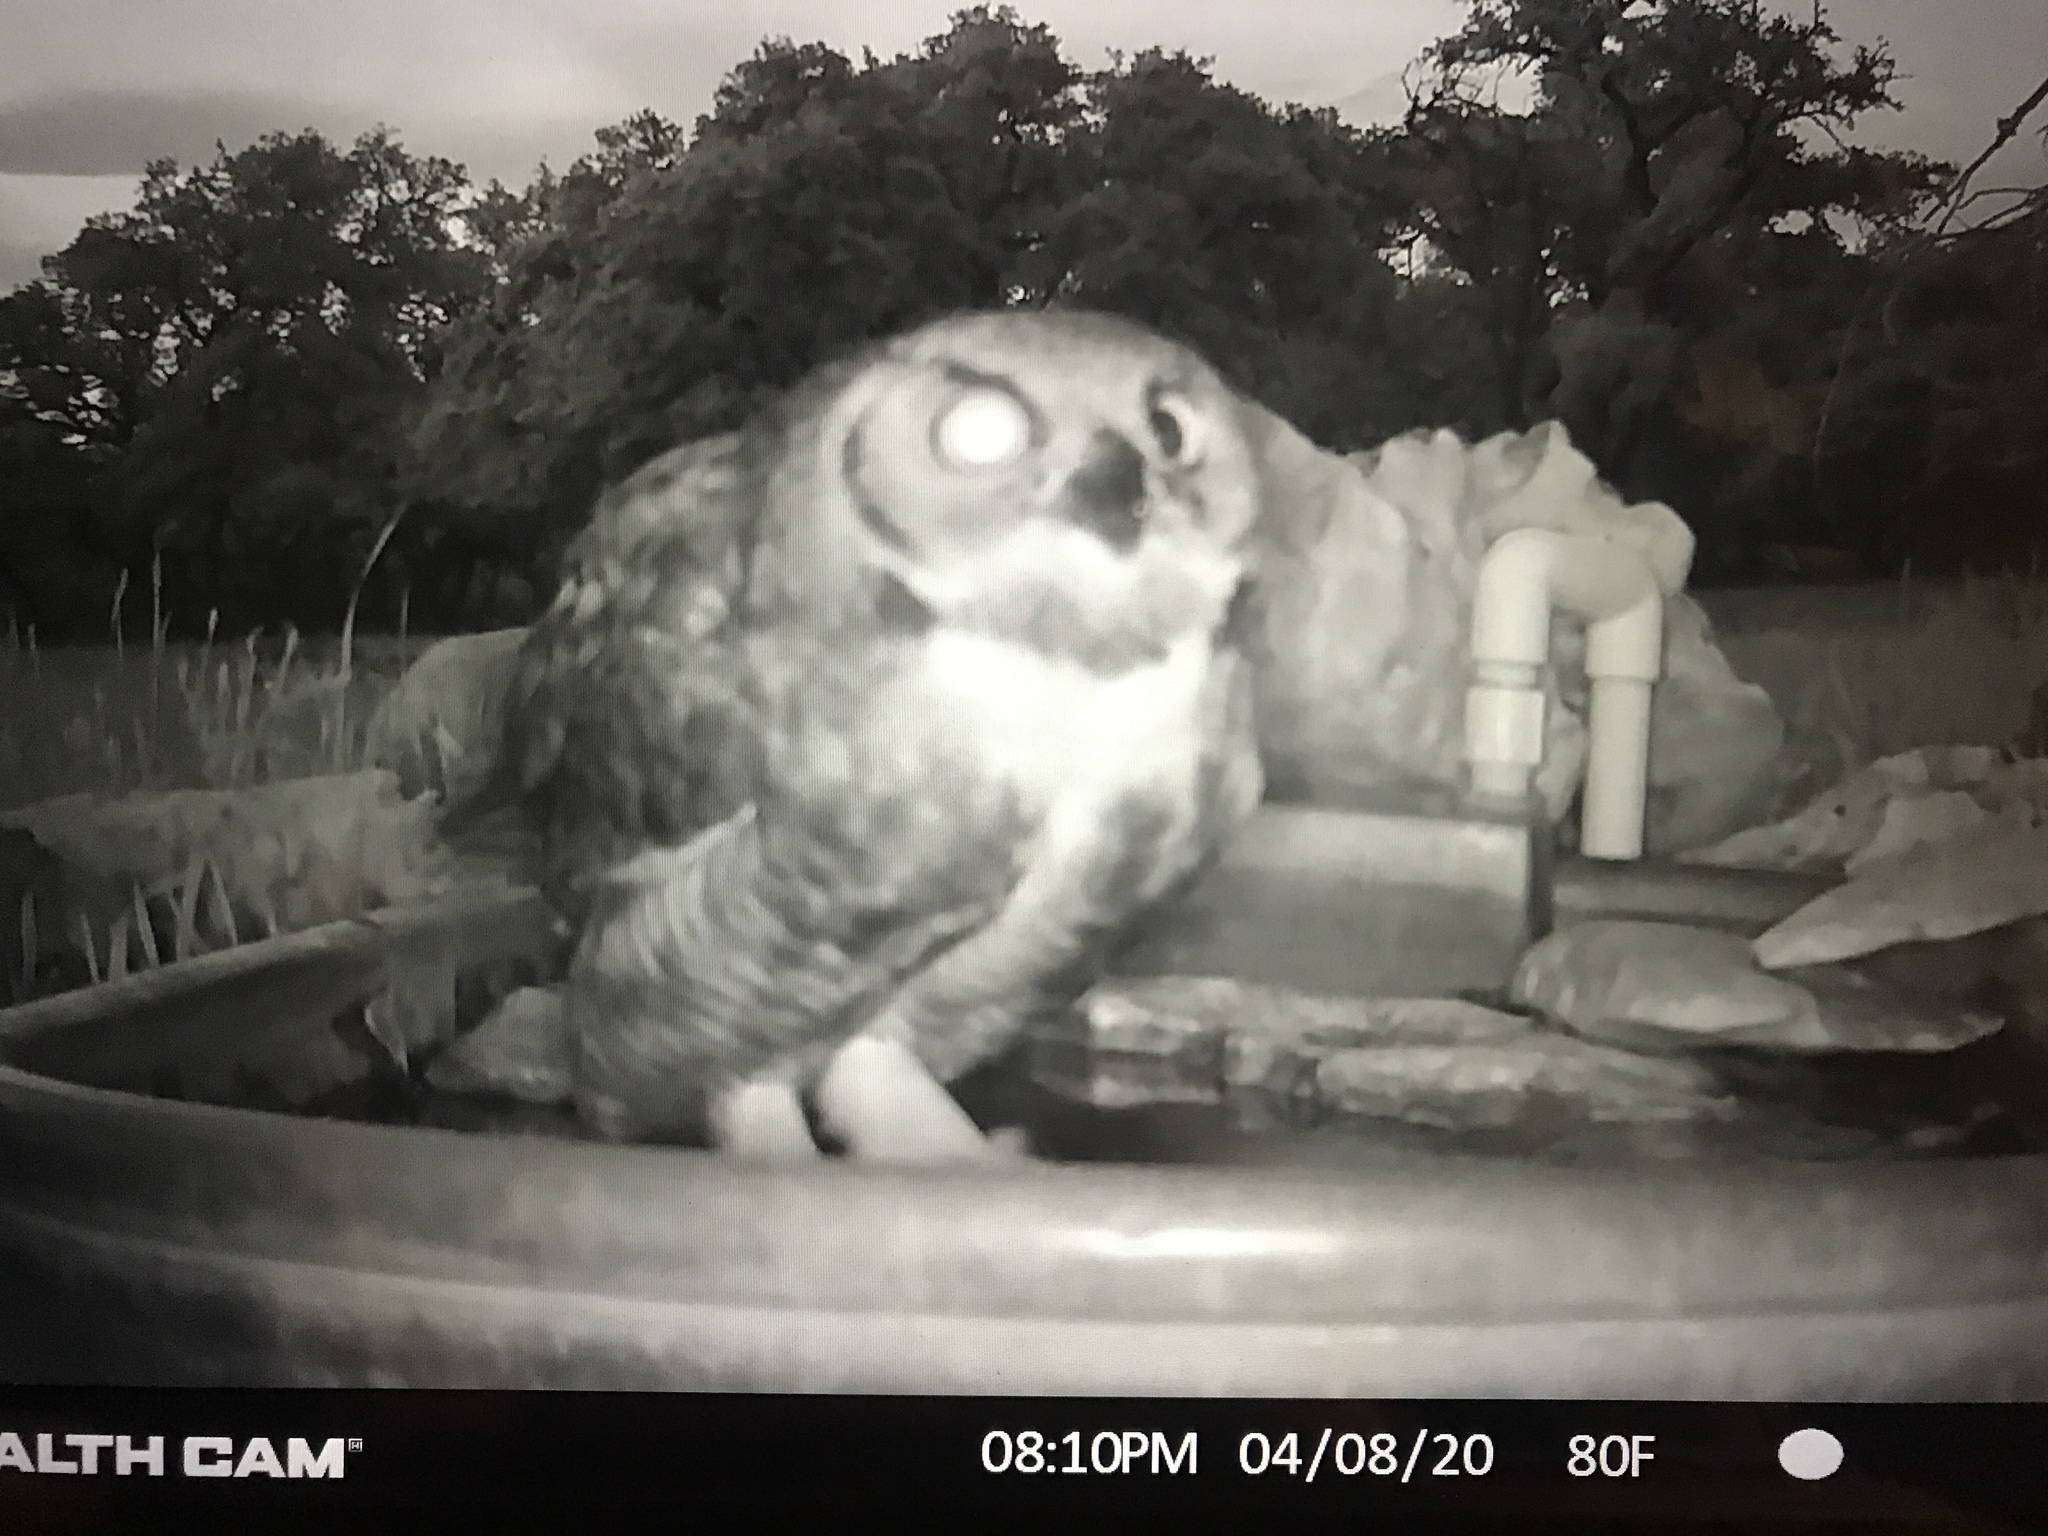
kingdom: Animalia
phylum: Chordata
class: Aves
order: Strigiformes
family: Strigidae
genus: Bubo
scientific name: Bubo virginianus
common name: Great horned owl
